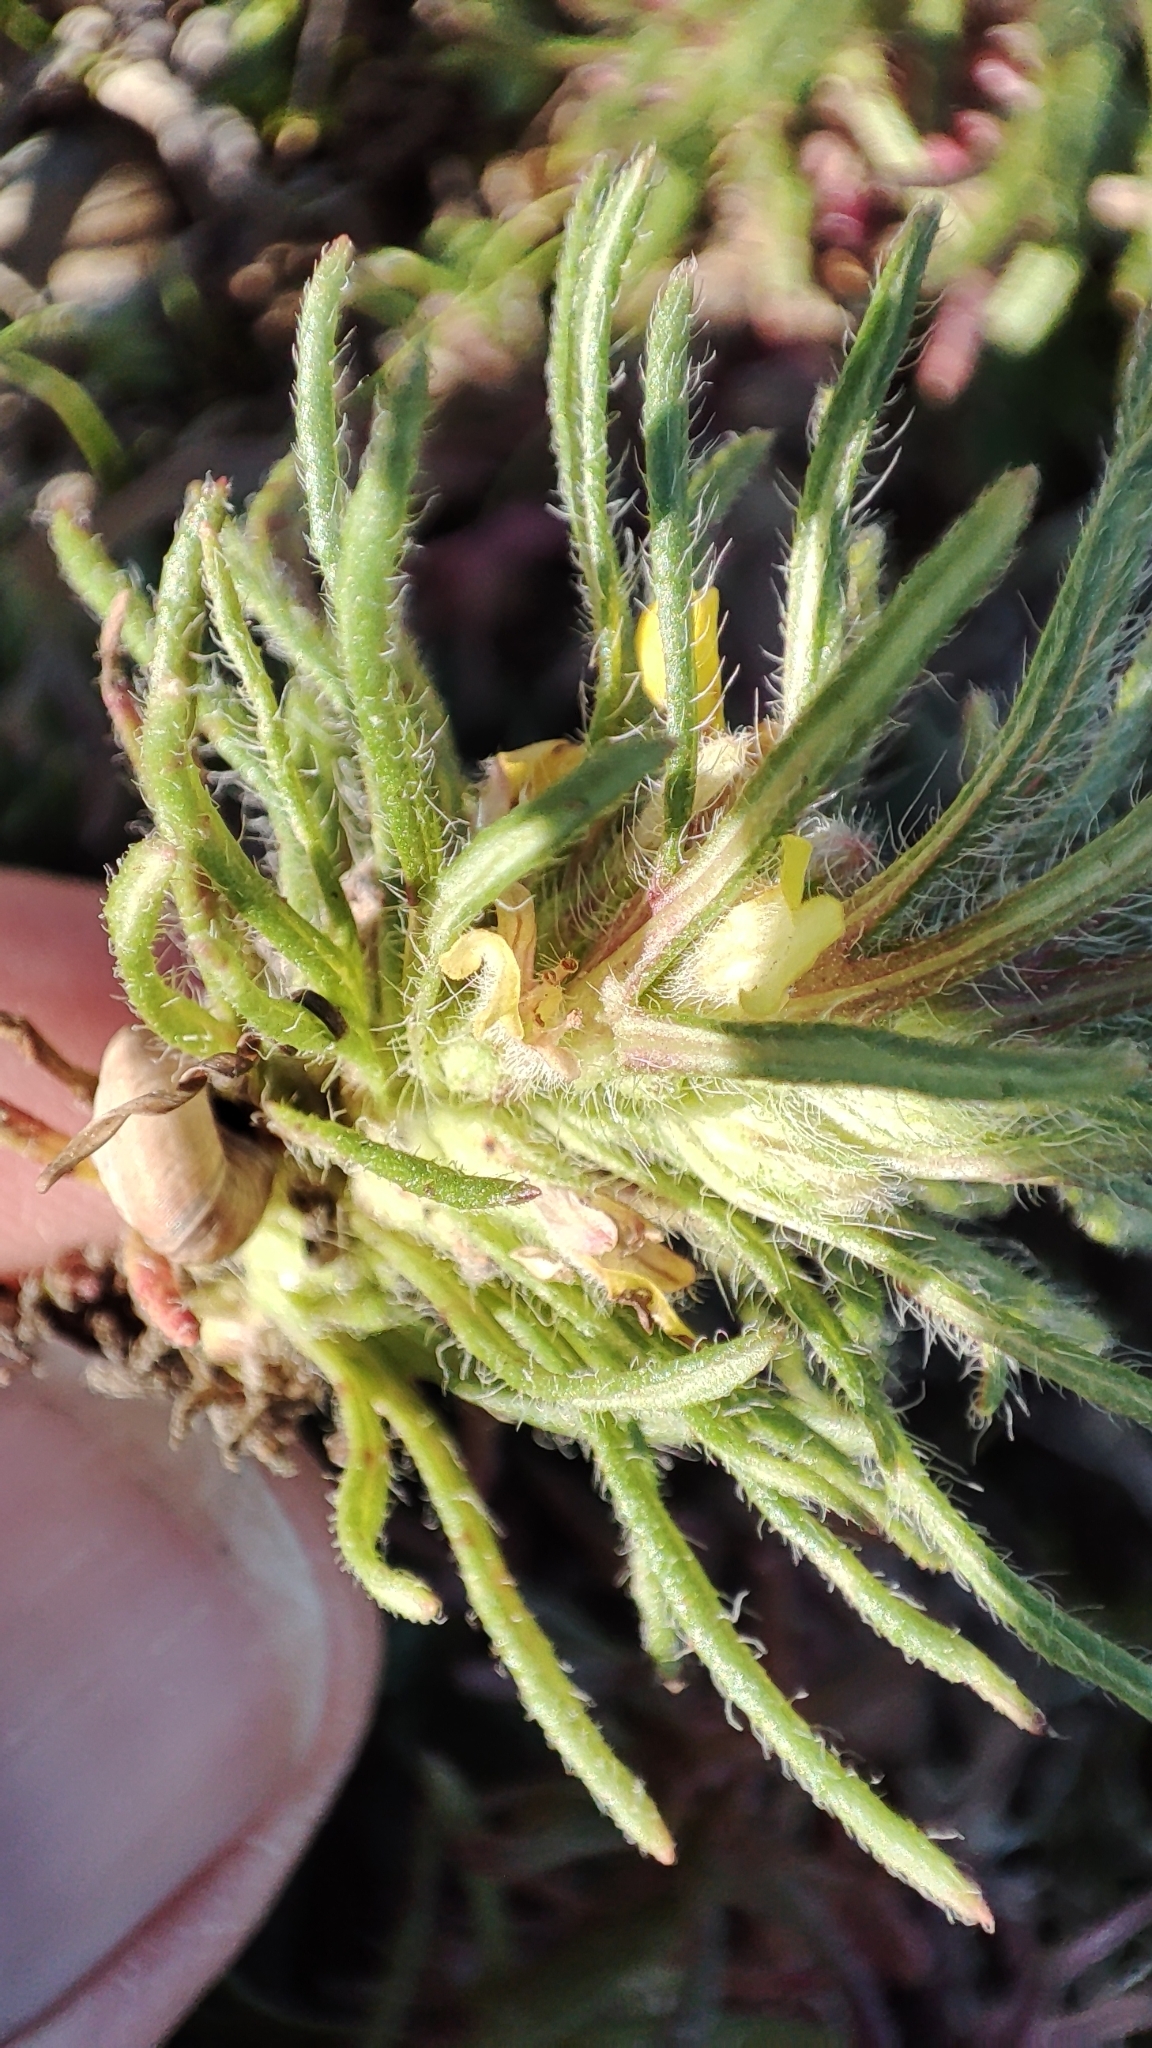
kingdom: Plantae
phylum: Tracheophyta
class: Magnoliopsida
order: Lamiales
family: Lamiaceae
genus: Ajuga
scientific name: Ajuga chamaepitys
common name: Ground-pine
